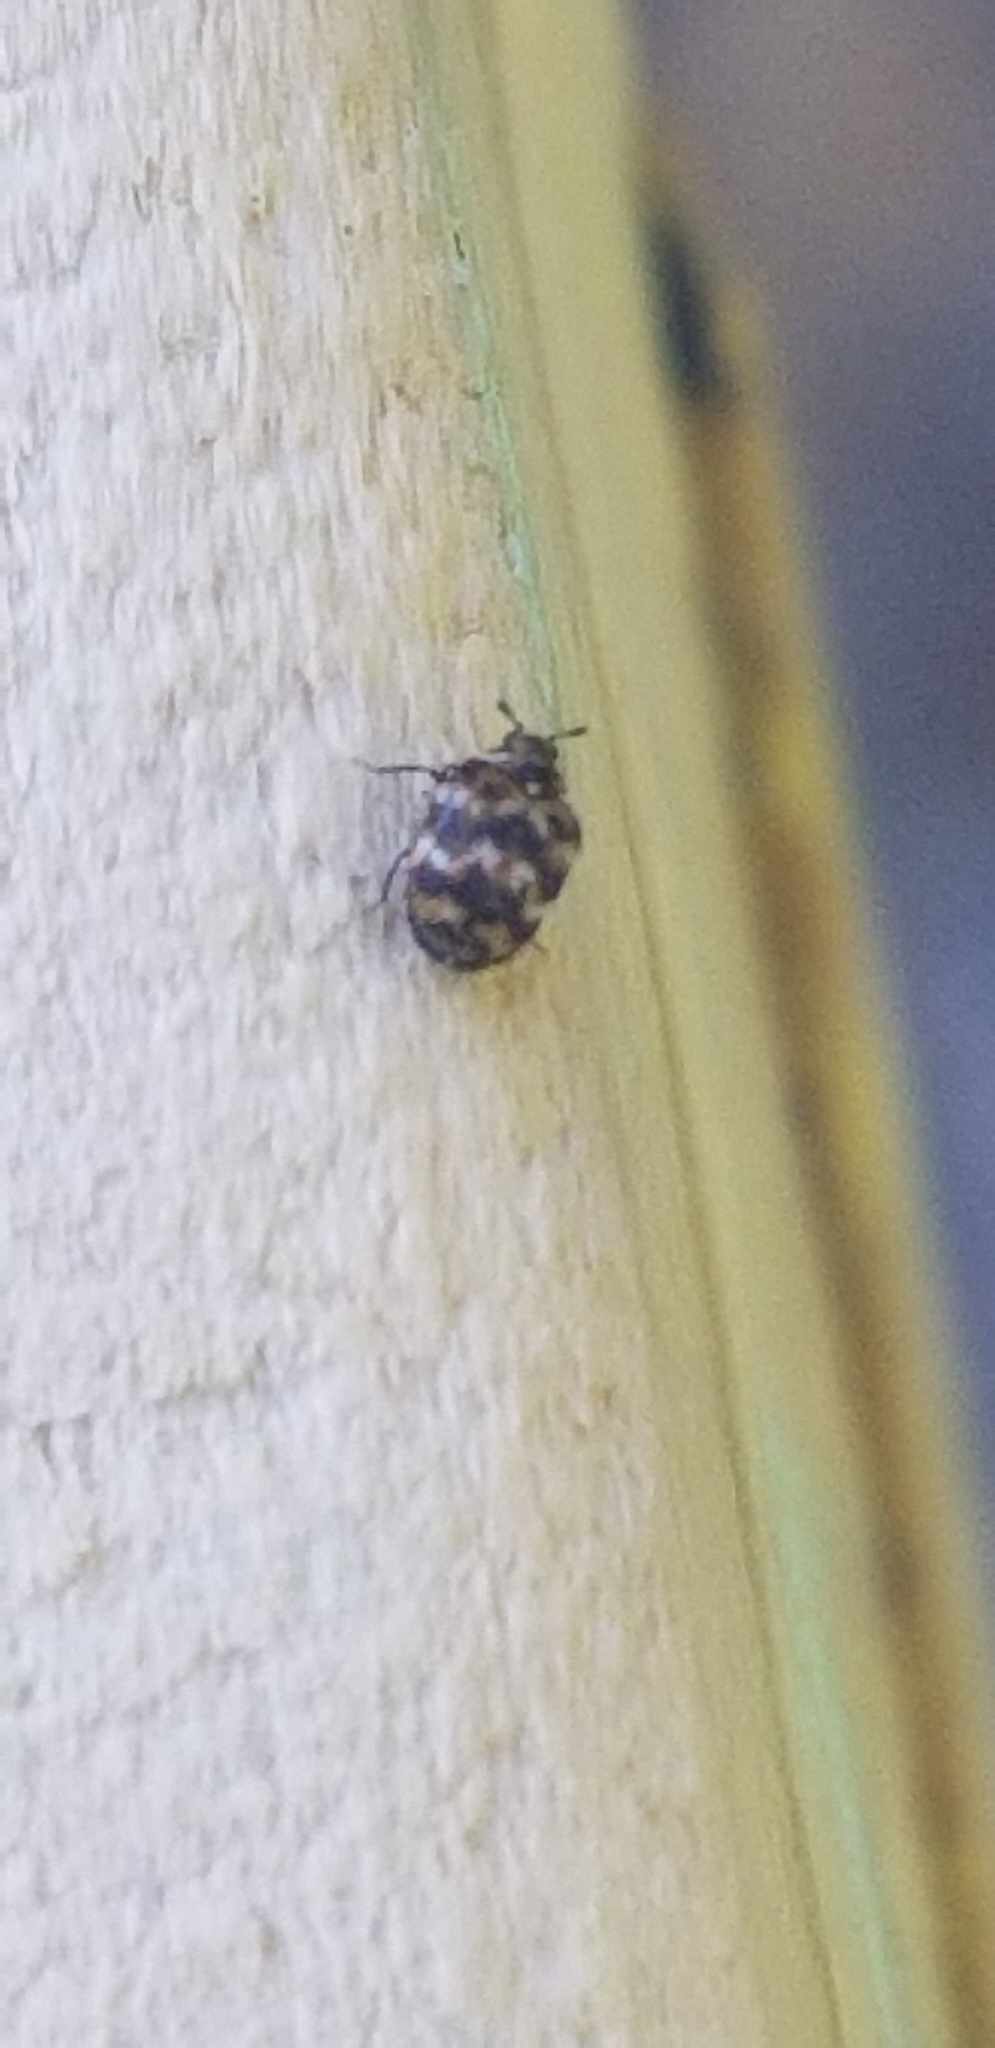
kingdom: Animalia
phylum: Arthropoda
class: Insecta
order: Coleoptera
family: Dermestidae
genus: Anthrenus
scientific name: Anthrenus verbasci
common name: Varied carpet beetle
